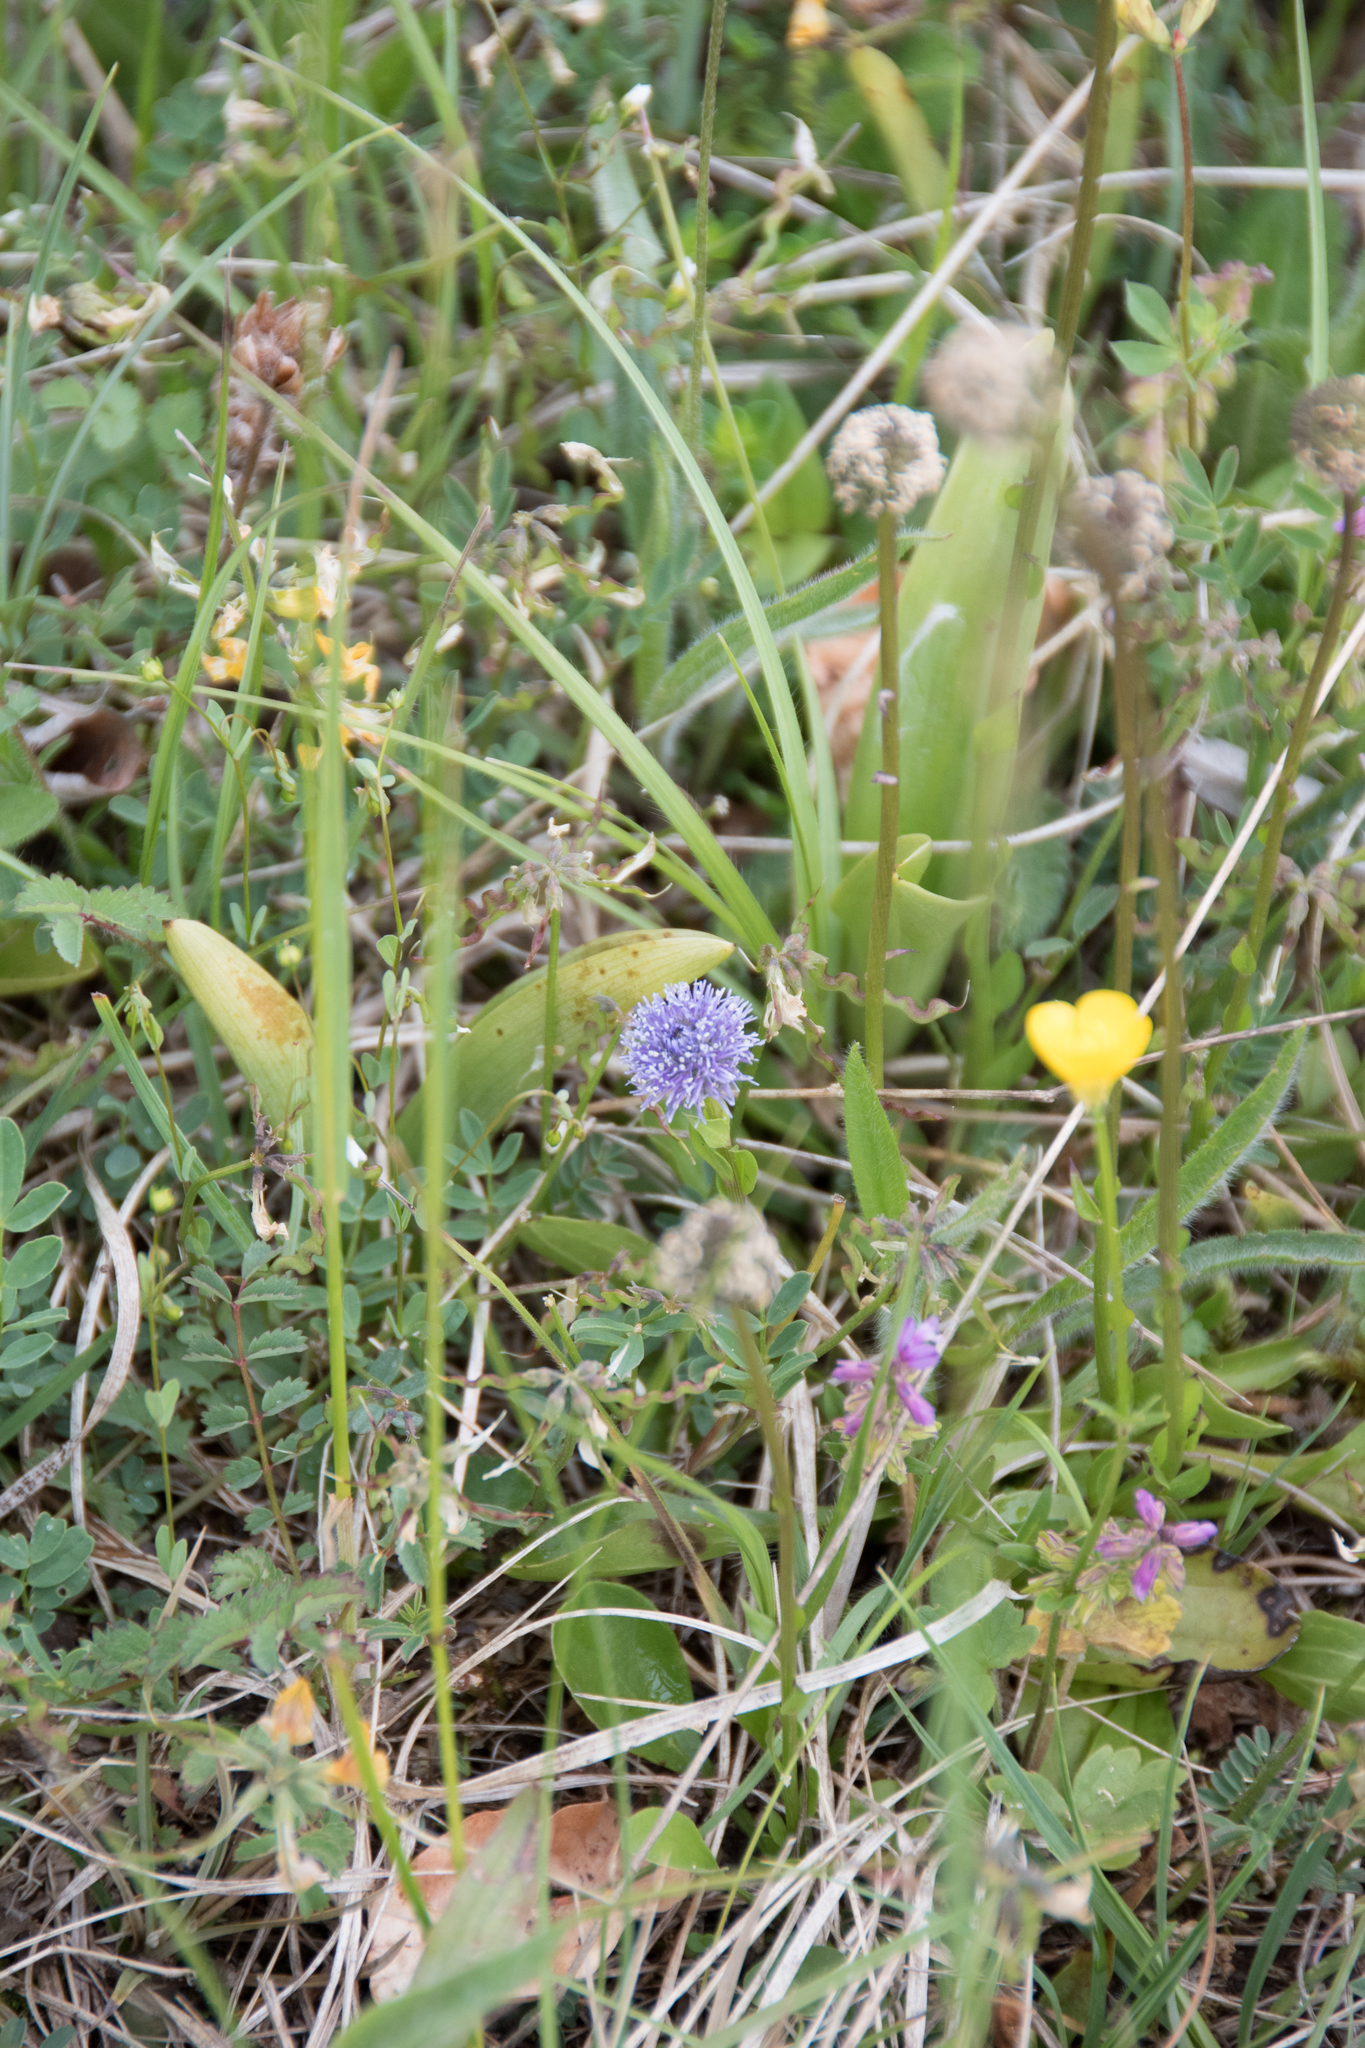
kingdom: Plantae
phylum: Tracheophyta
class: Magnoliopsida
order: Lamiales
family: Plantaginaceae
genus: Globularia
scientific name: Globularia bisnagarica
